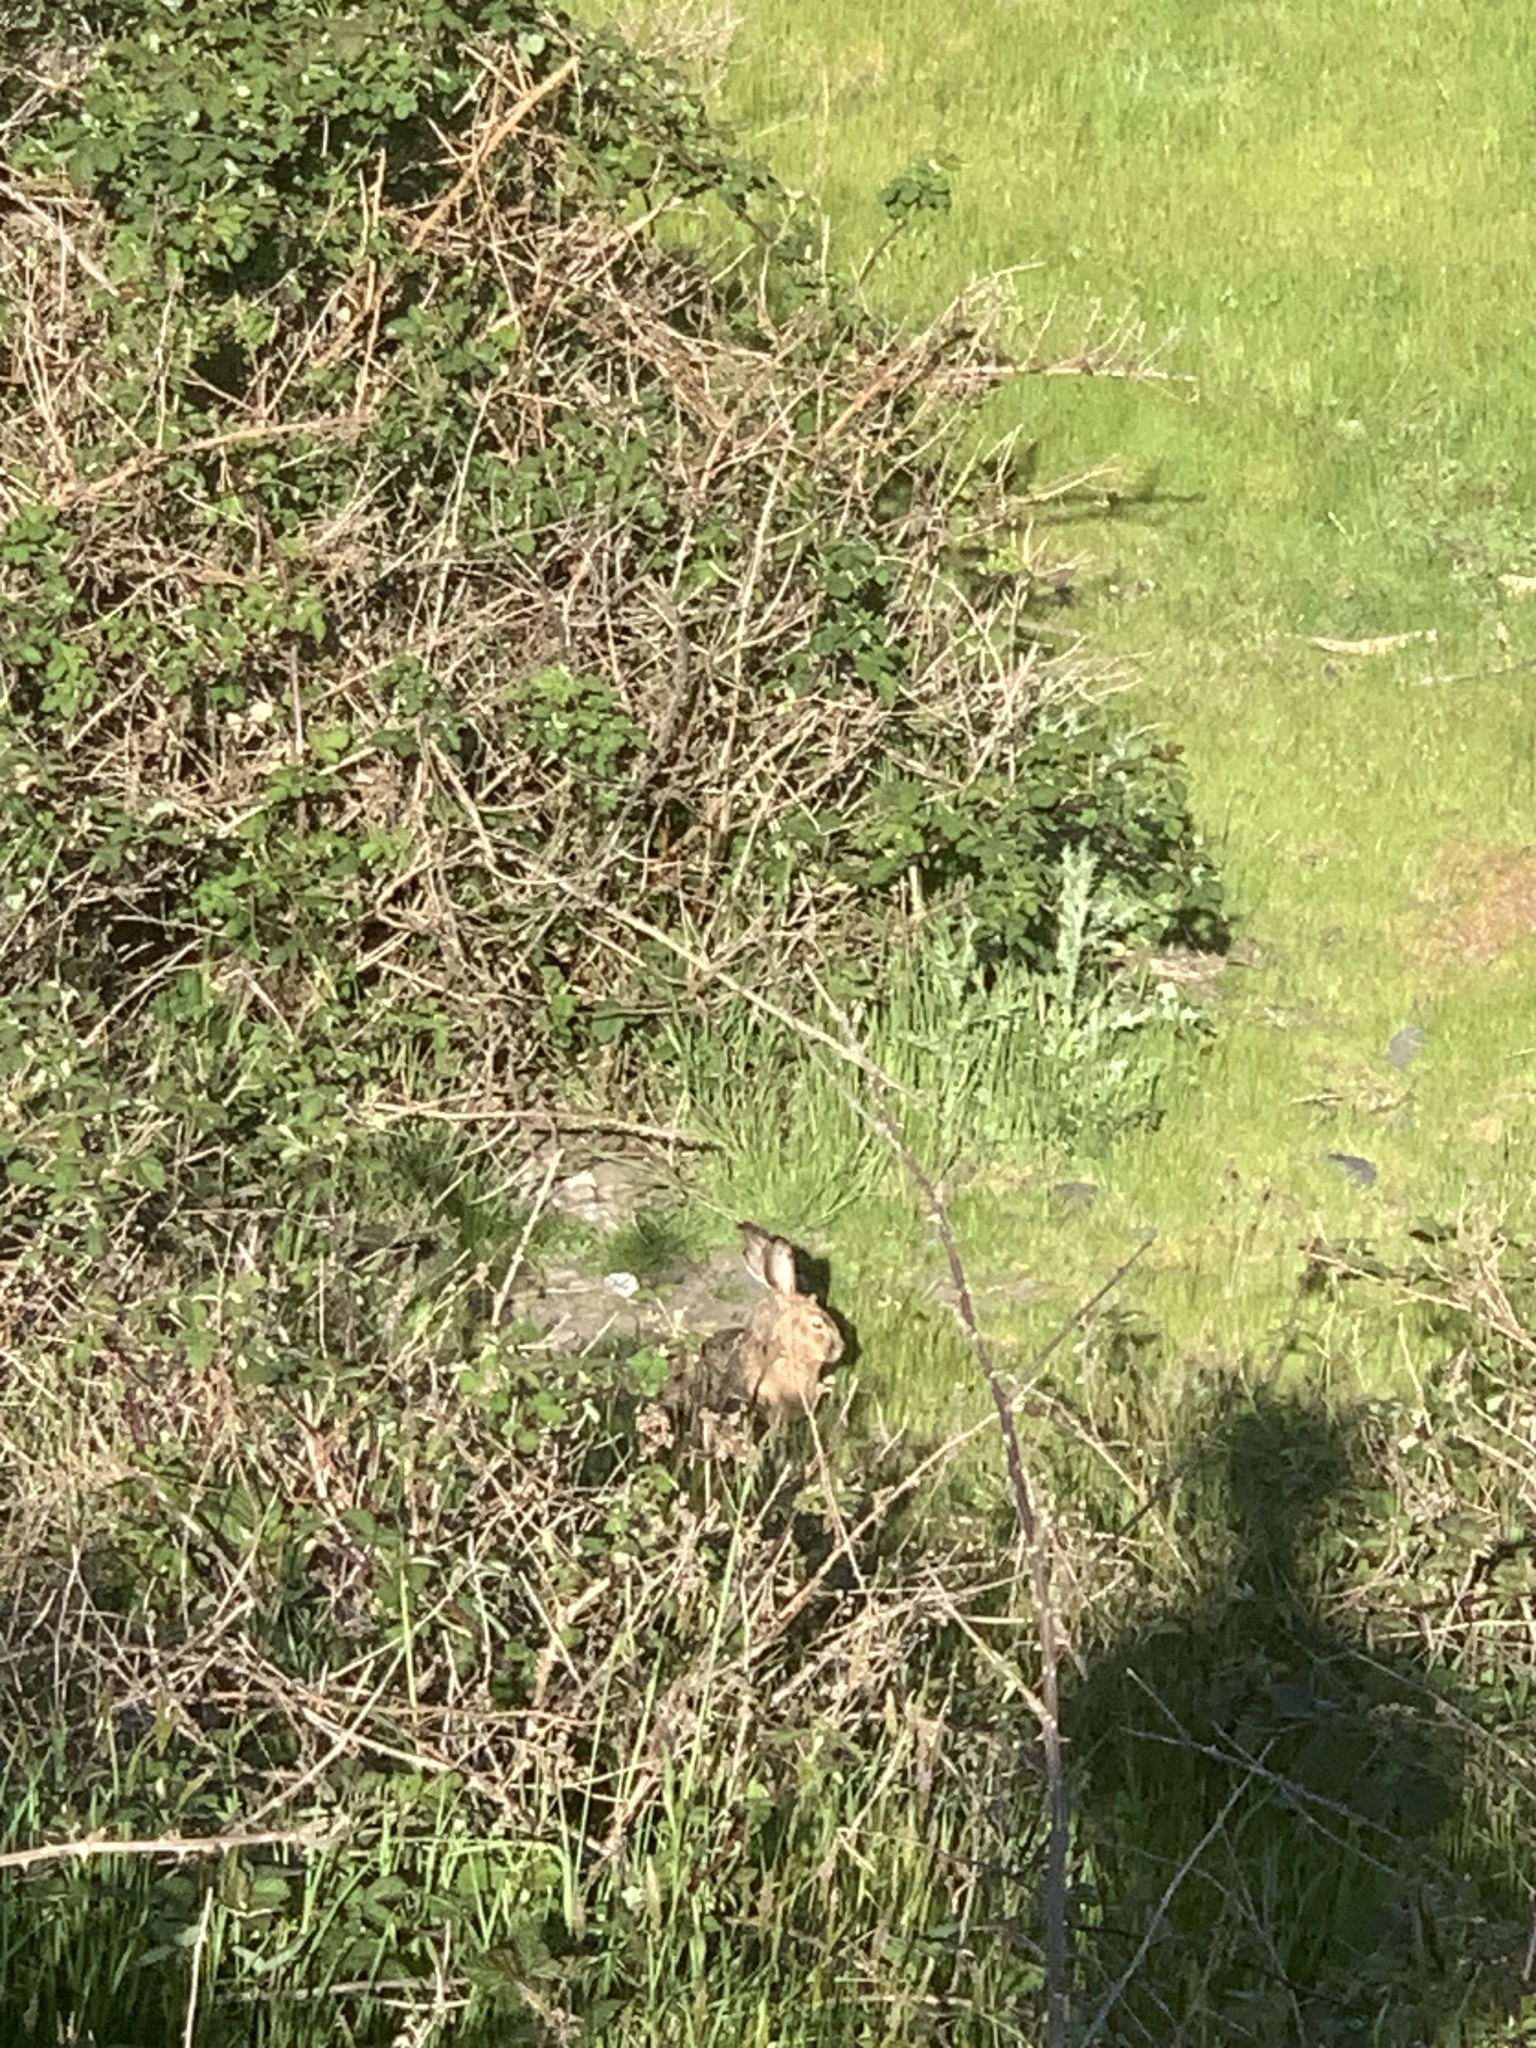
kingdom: Animalia
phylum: Chordata
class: Mammalia
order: Lagomorpha
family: Leporidae
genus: Lepus
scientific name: Lepus californicus
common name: Black-tailed jackrabbit
